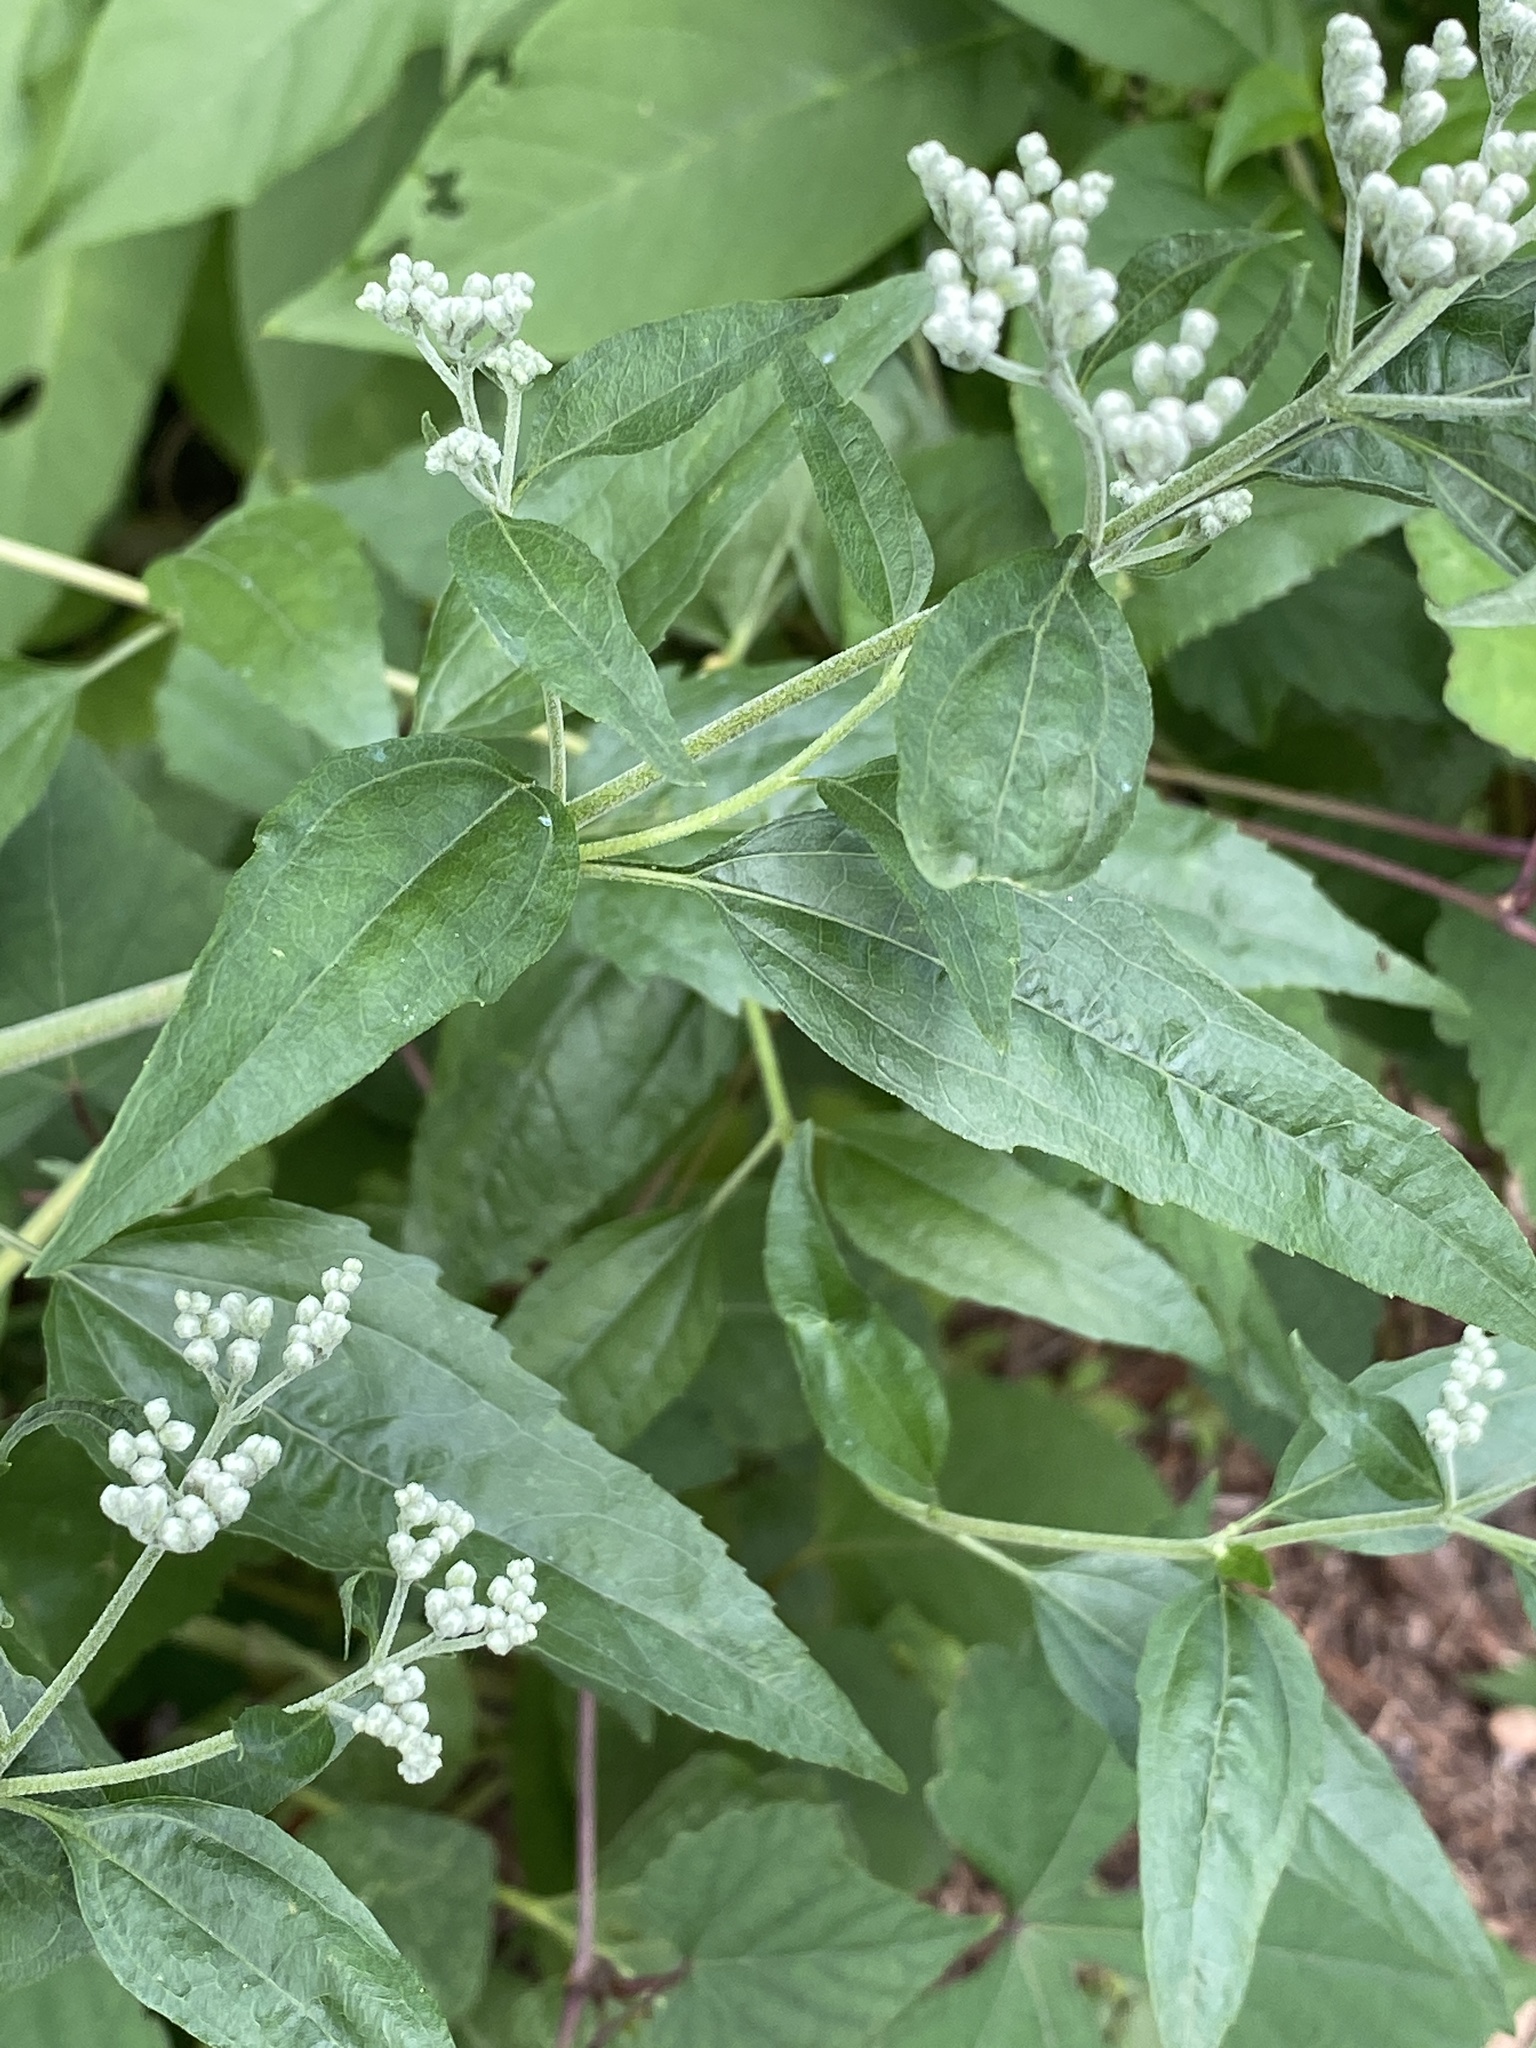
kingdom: Plantae
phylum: Tracheophyta
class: Magnoliopsida
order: Asterales
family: Asteraceae
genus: Eupatorium
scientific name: Eupatorium serotinum
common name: Late boneset
